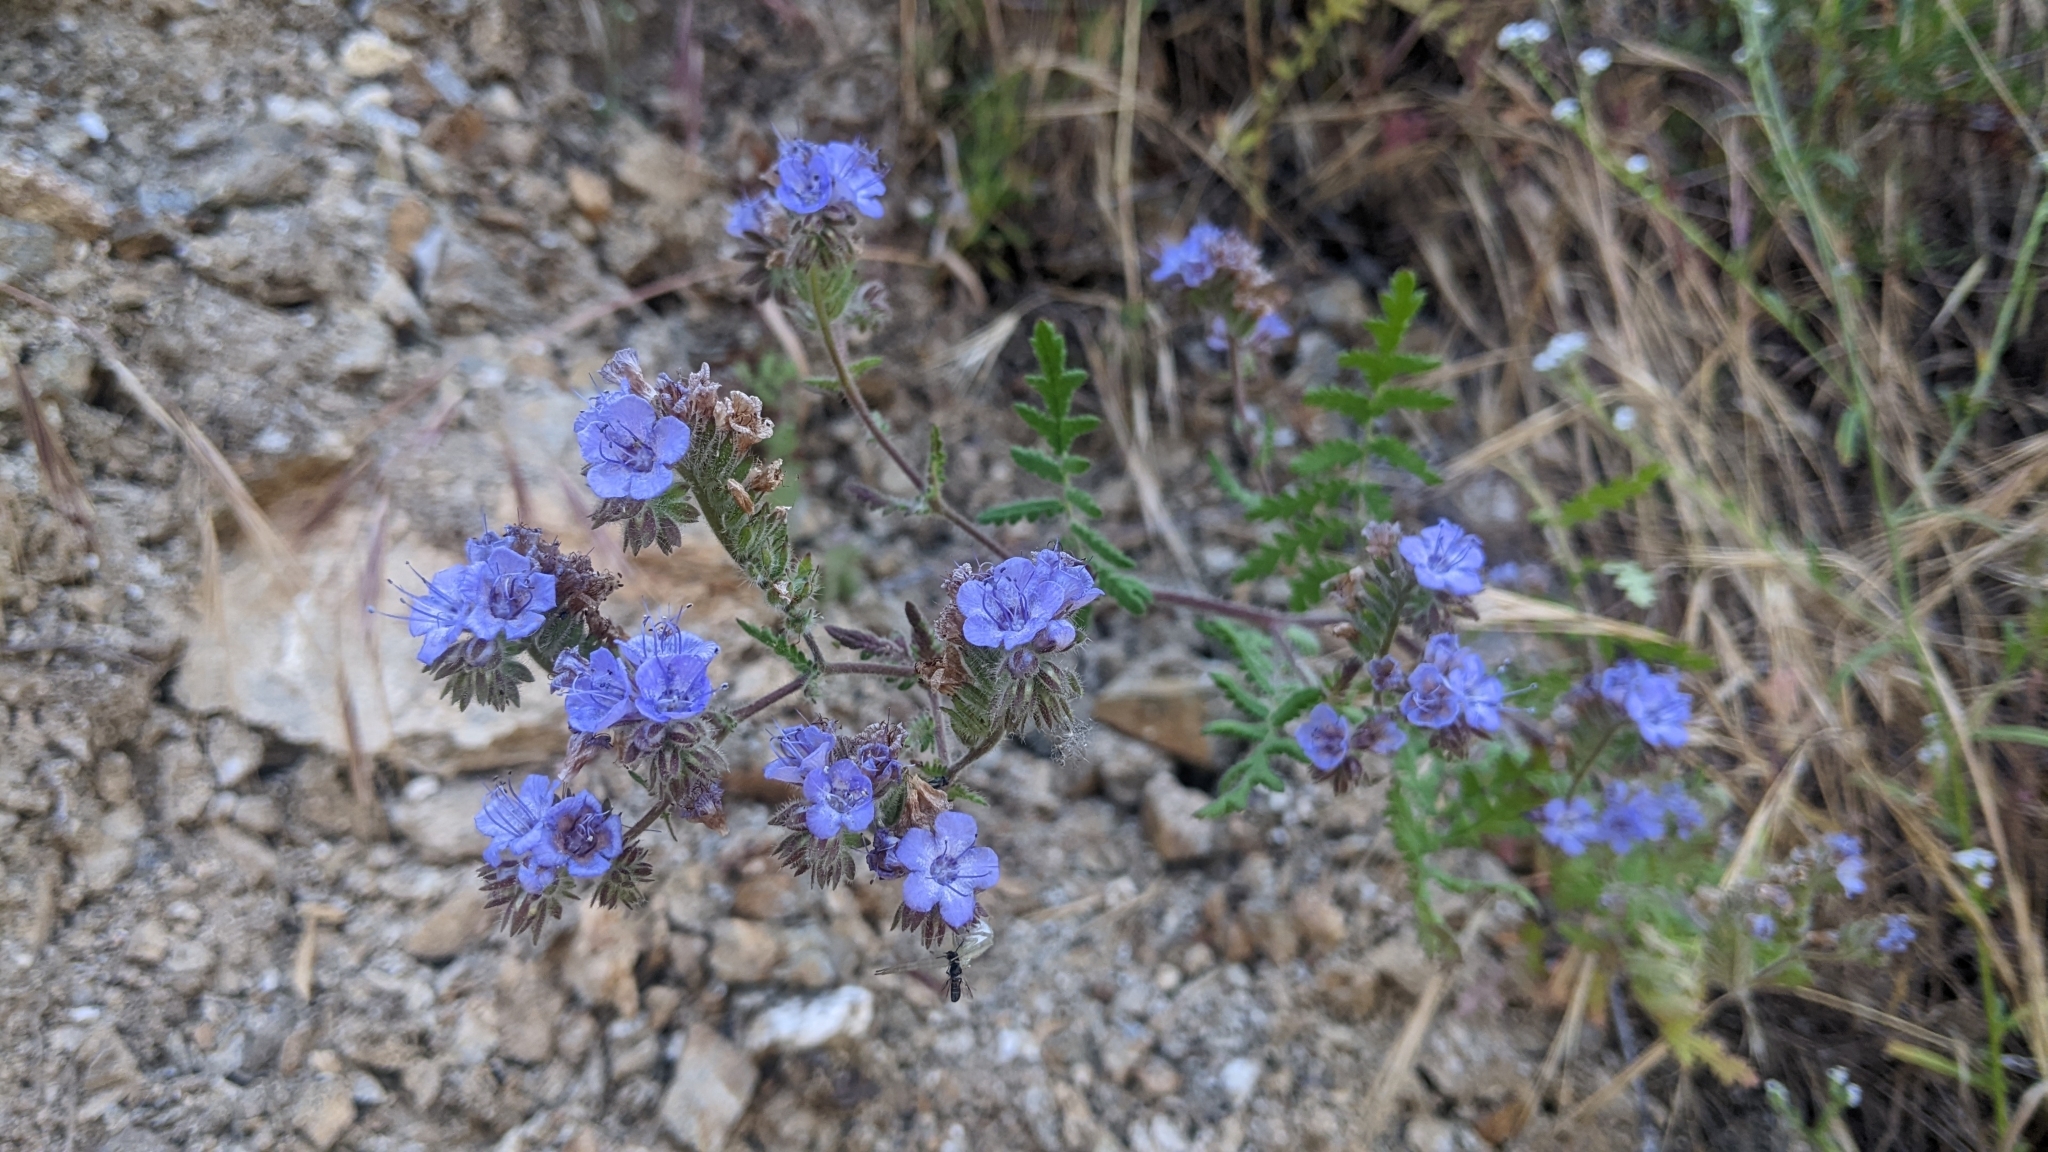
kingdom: Plantae
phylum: Tracheophyta
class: Magnoliopsida
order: Boraginales
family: Hydrophyllaceae
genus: Phacelia
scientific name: Phacelia distans
